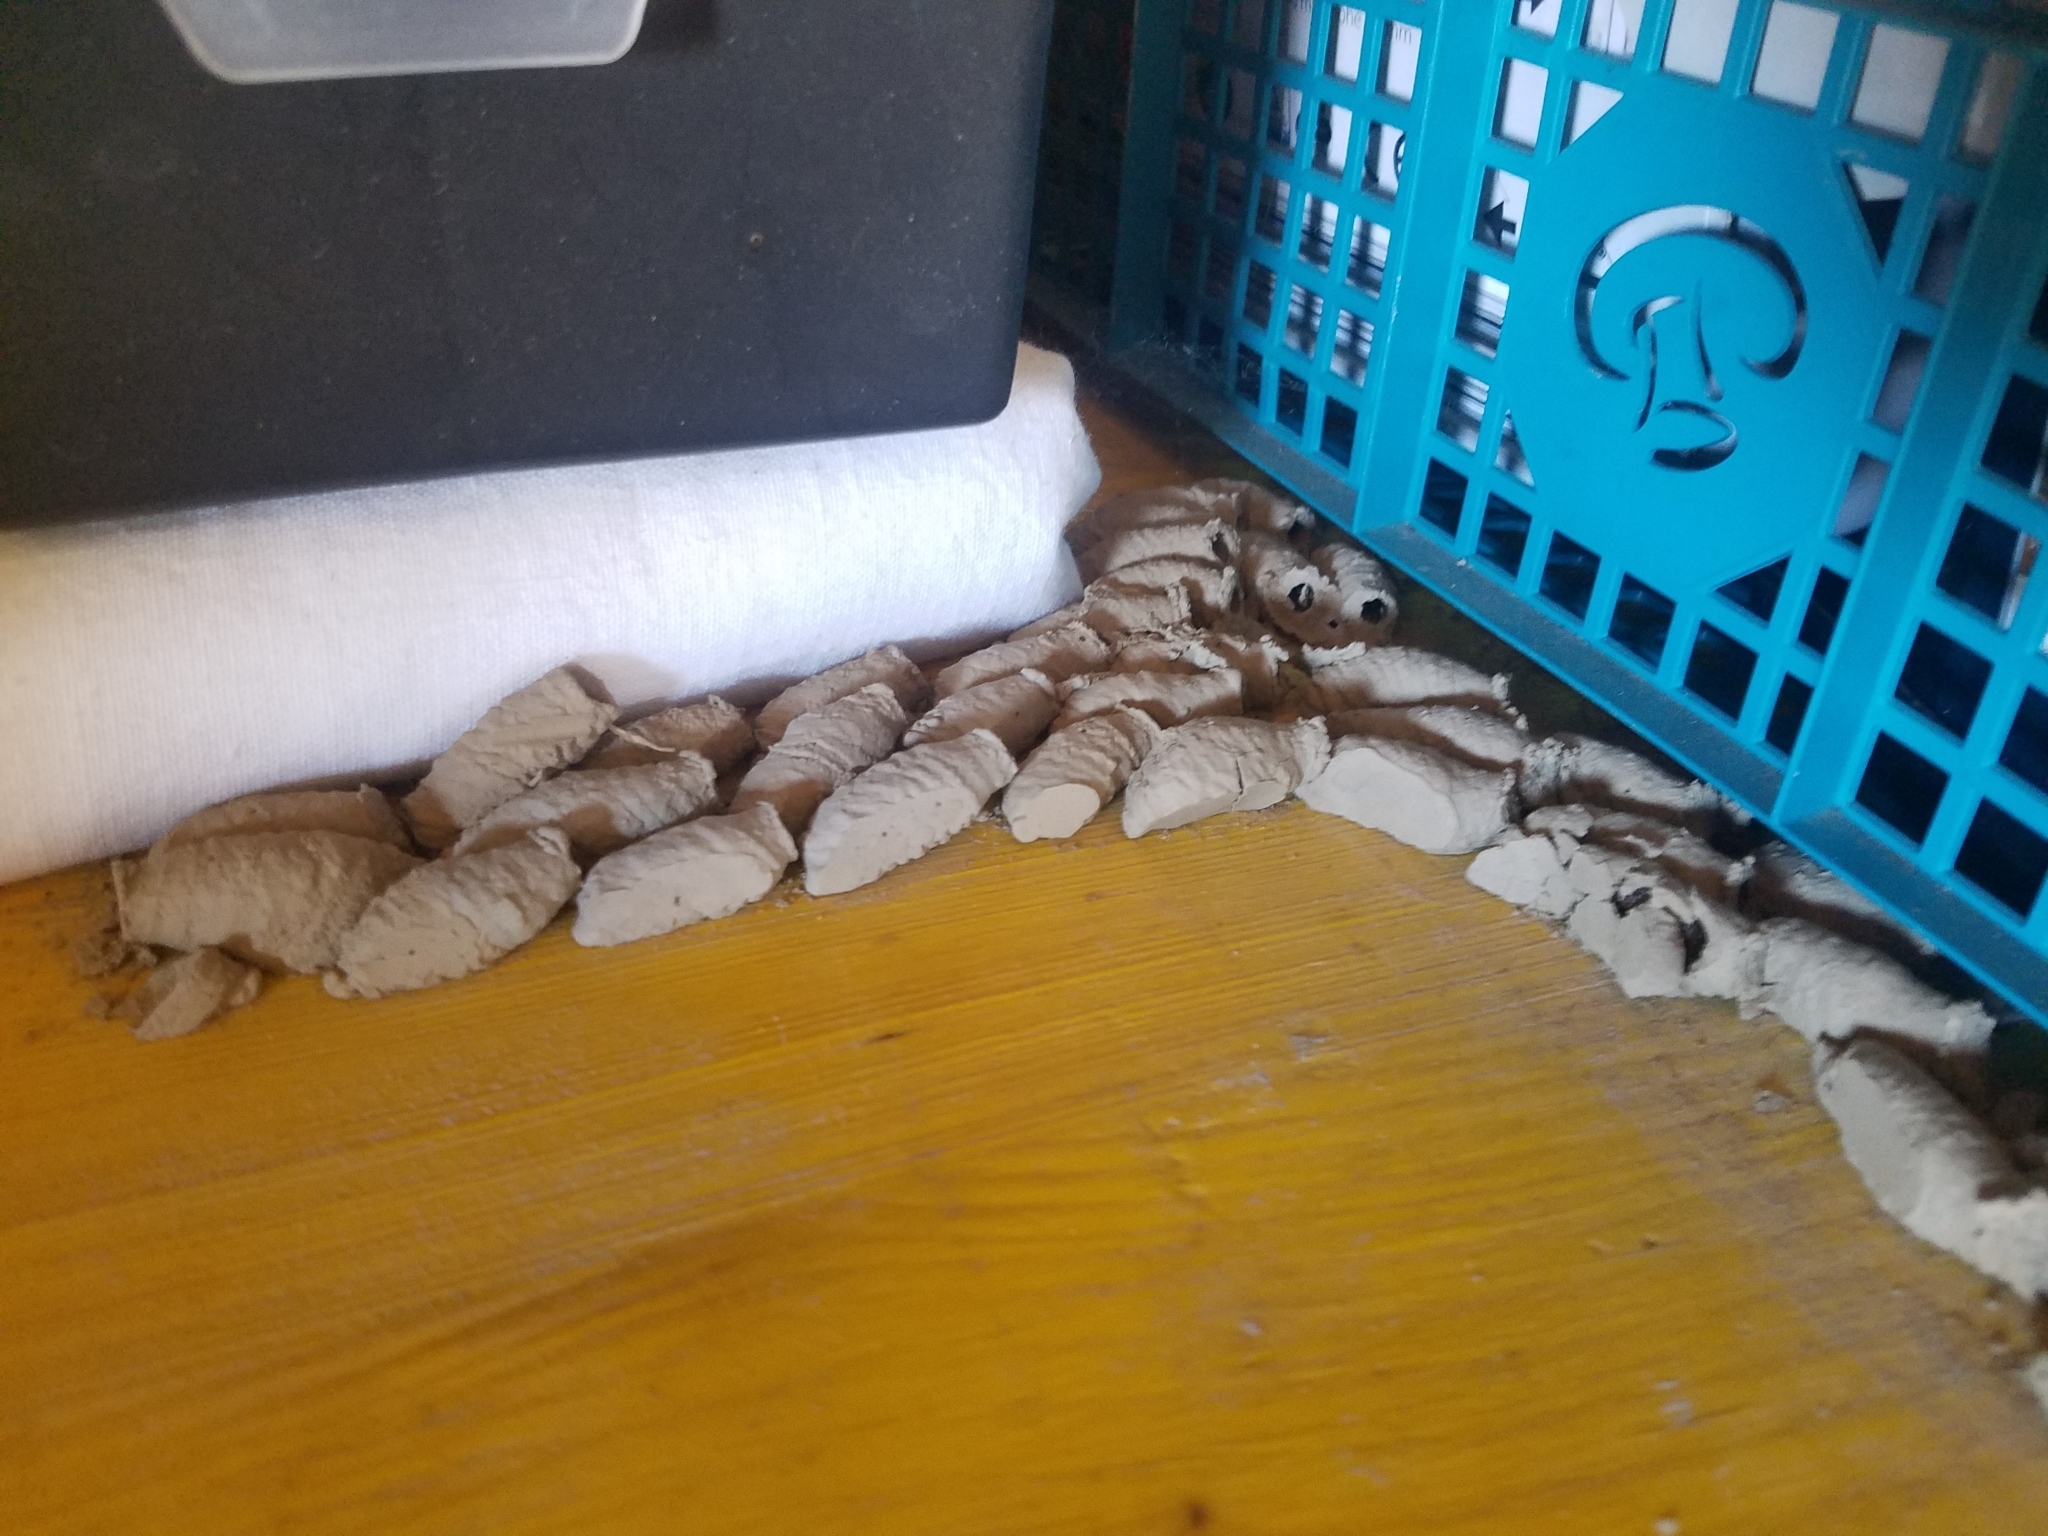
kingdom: Animalia
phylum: Arthropoda
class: Insecta
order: Hymenoptera
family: Sphecidae
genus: Sceliphron
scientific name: Sceliphron curvatum
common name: Pèlopèe
